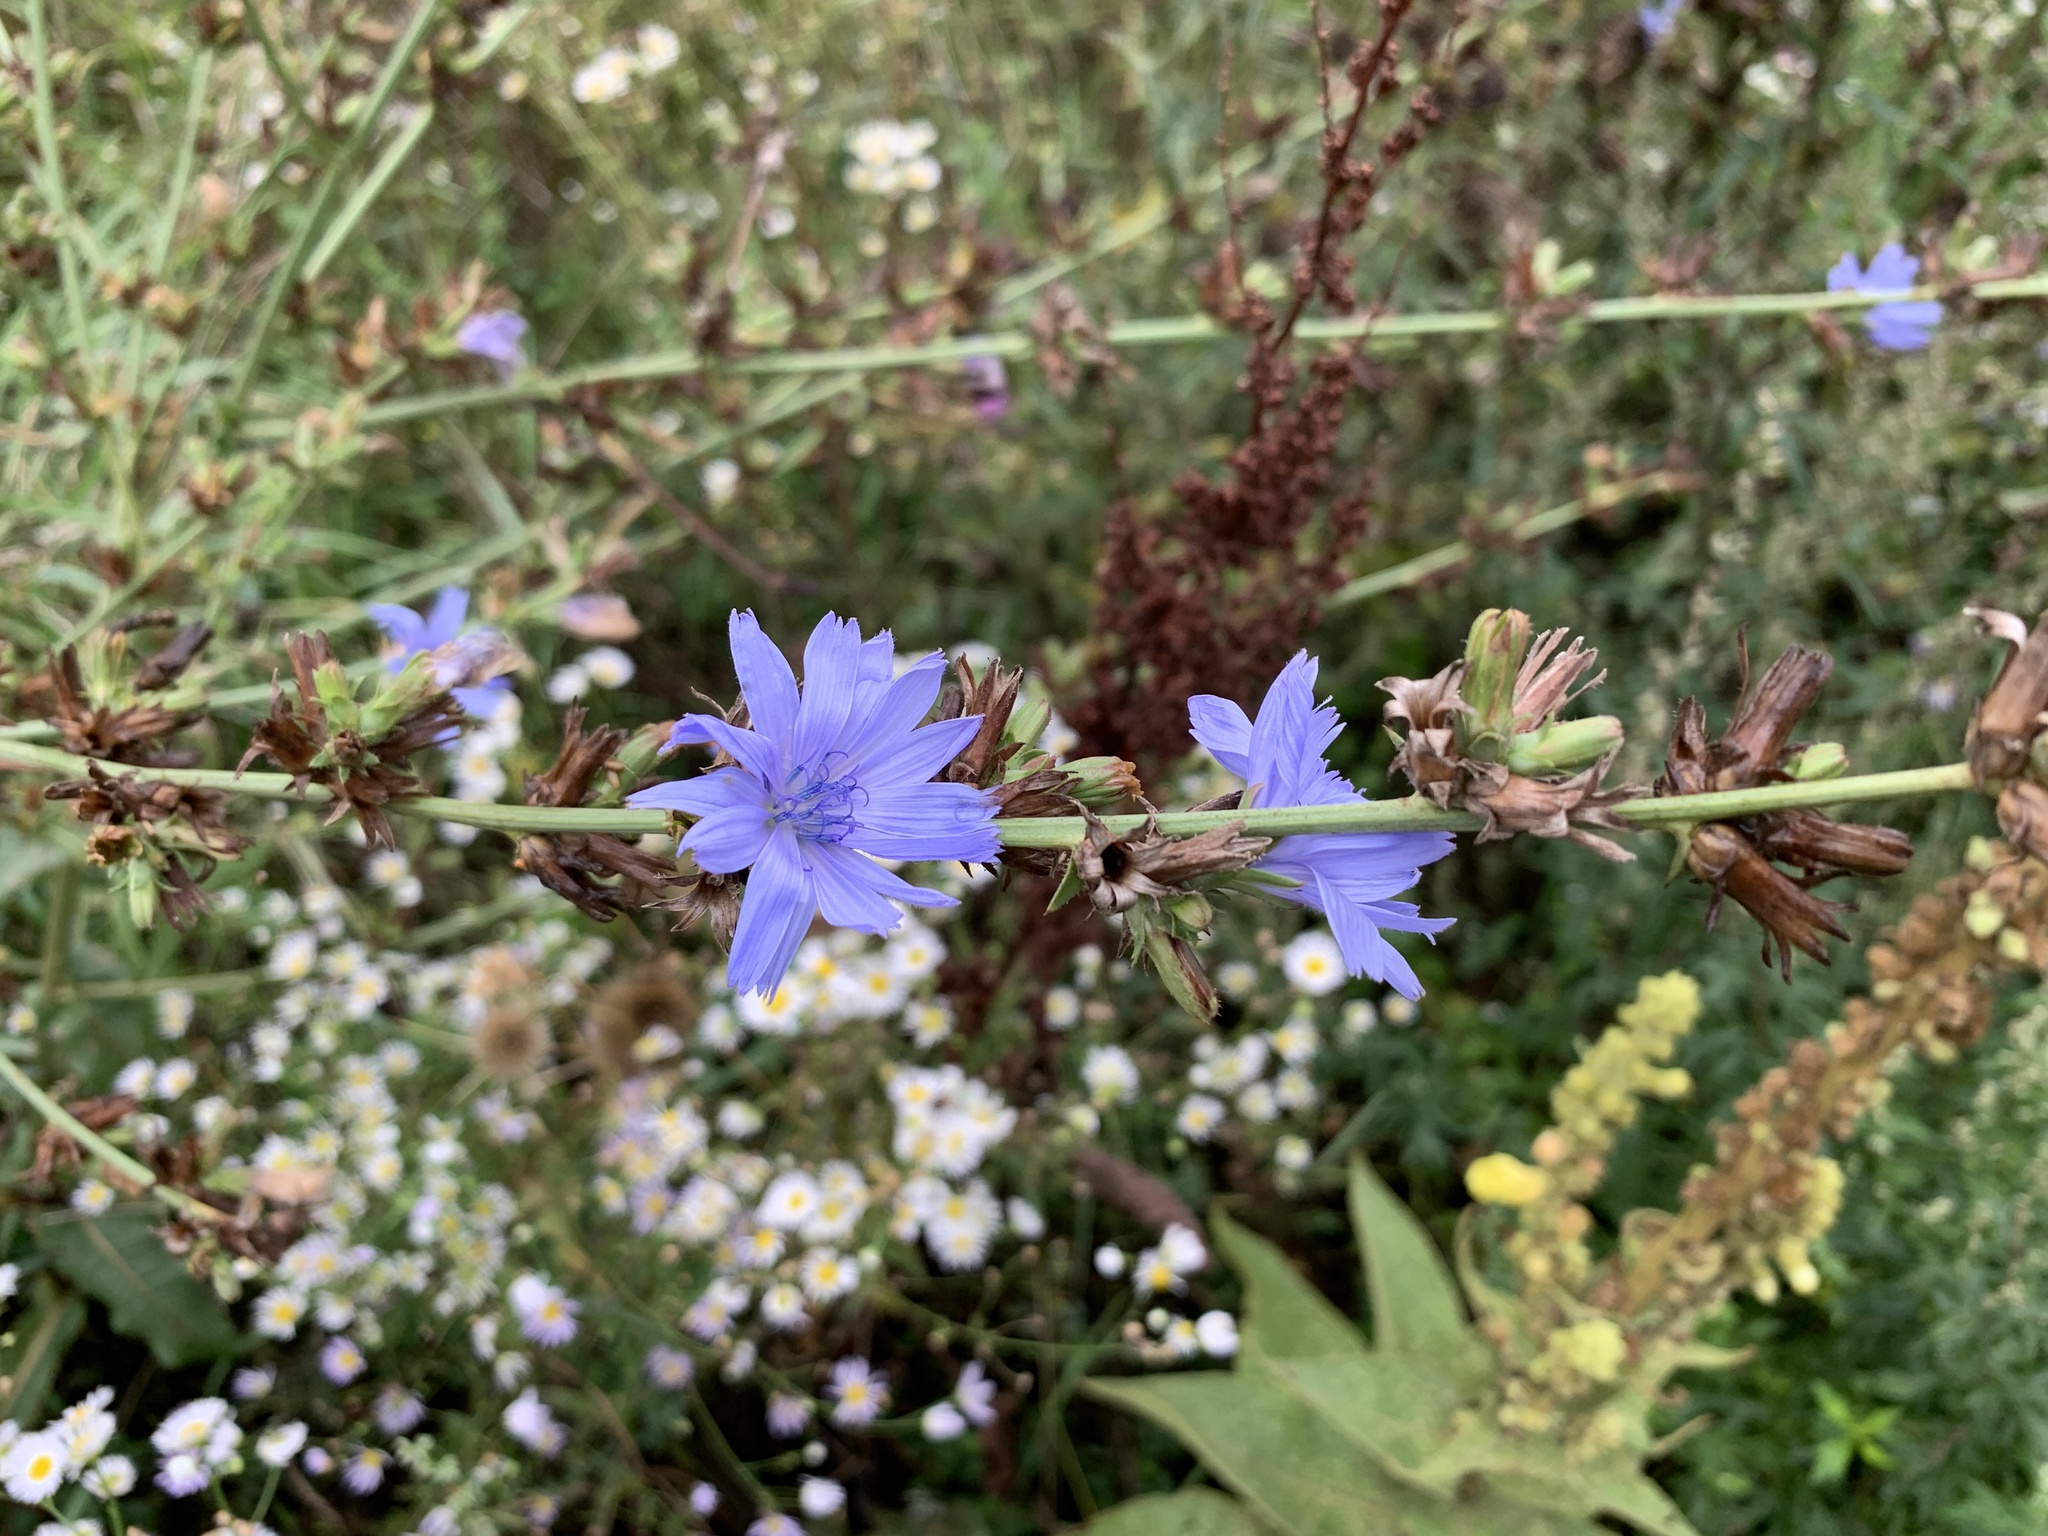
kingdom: Plantae
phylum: Tracheophyta
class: Magnoliopsida
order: Asterales
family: Asteraceae
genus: Cichorium
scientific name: Cichorium intybus
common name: Chicory
